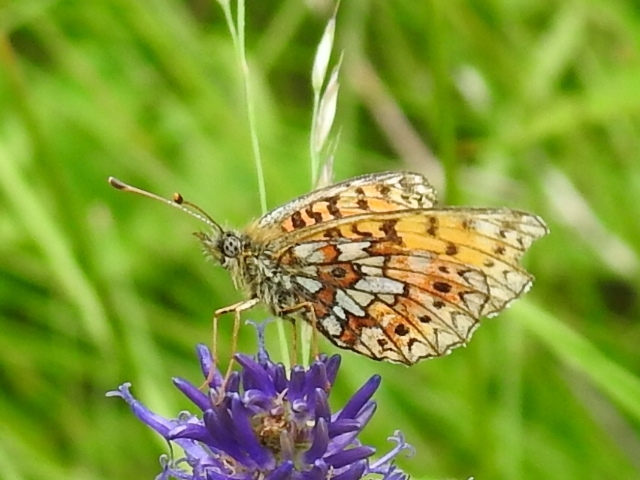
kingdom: Animalia
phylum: Arthropoda
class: Insecta
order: Lepidoptera
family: Nymphalidae
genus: Boloria
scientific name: Boloria selene
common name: Small pearl-bordered fritillary
